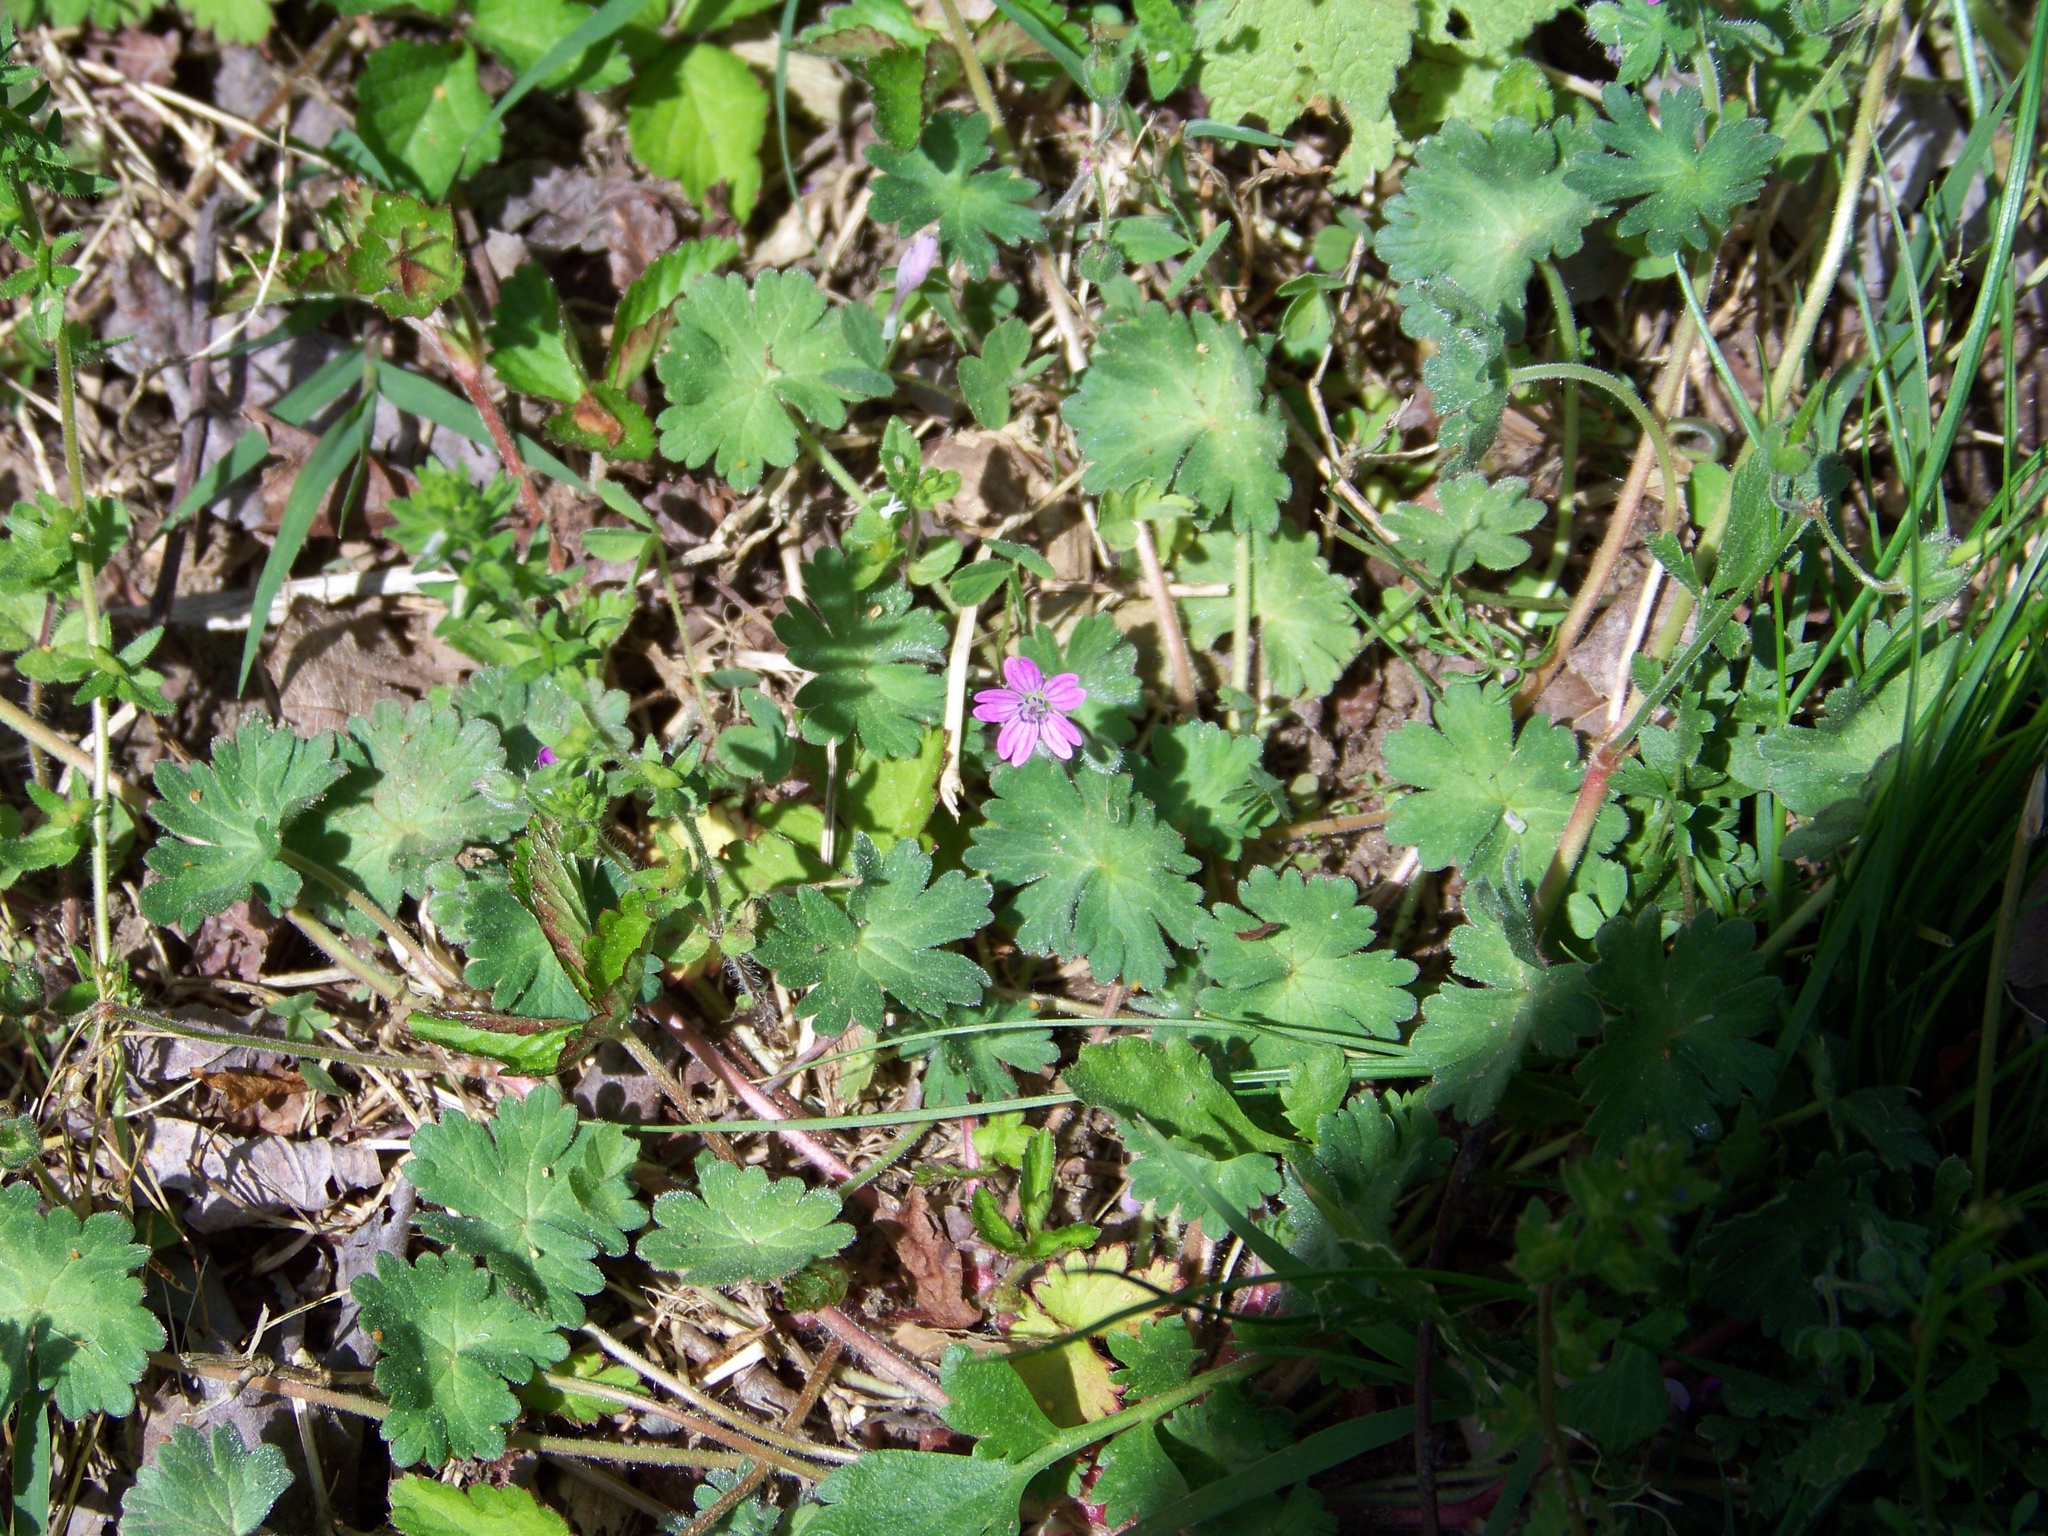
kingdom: Plantae
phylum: Tracheophyta
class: Magnoliopsida
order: Geraniales
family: Geraniaceae
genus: Geranium
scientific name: Geranium molle
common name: Dove's-foot crane's-bill
